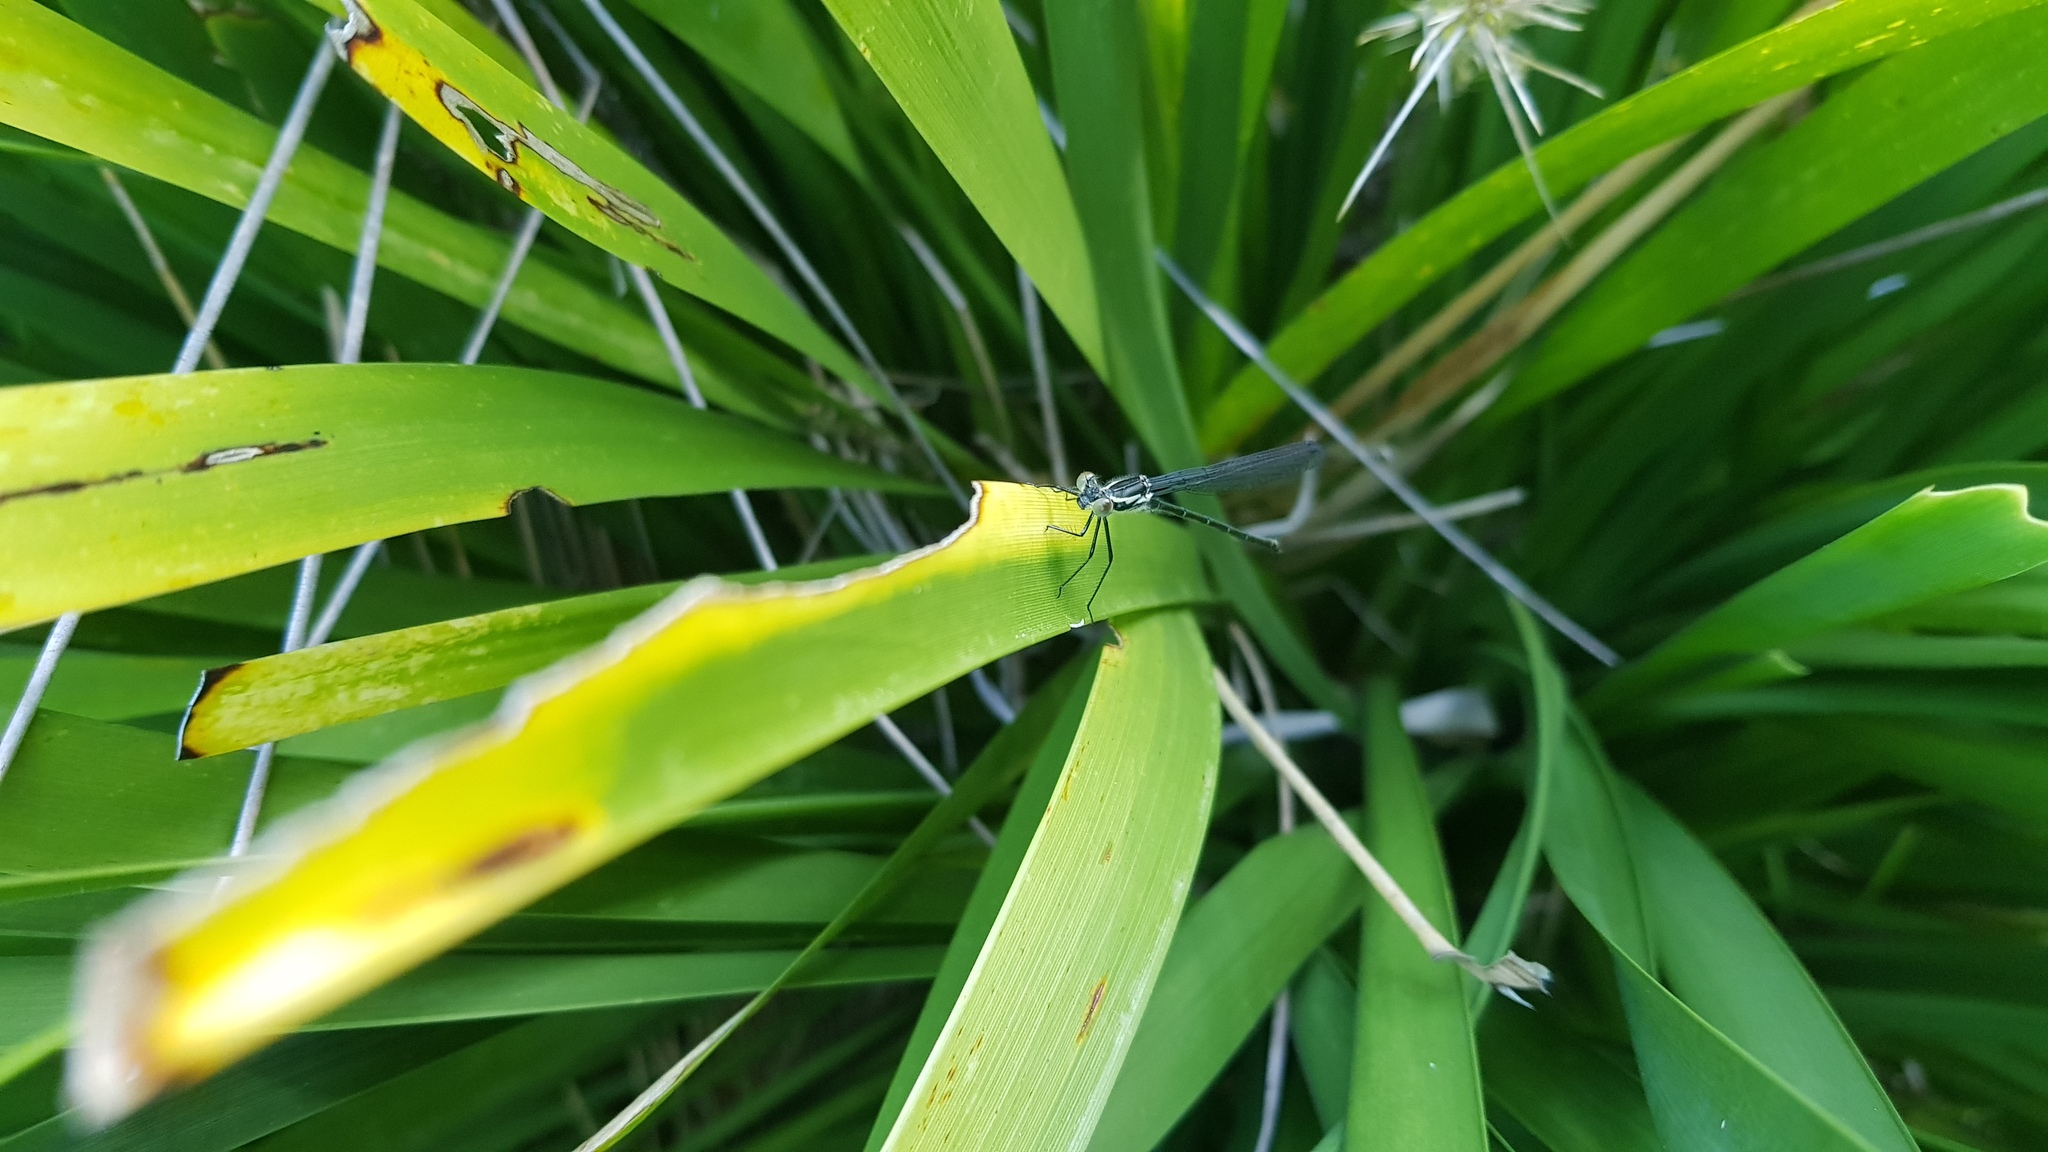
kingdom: Animalia
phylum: Arthropoda
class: Insecta
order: Odonata
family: Argiolestidae
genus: Austroargiolestes
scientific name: Austroargiolestes icteromelas
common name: Common flatwing
